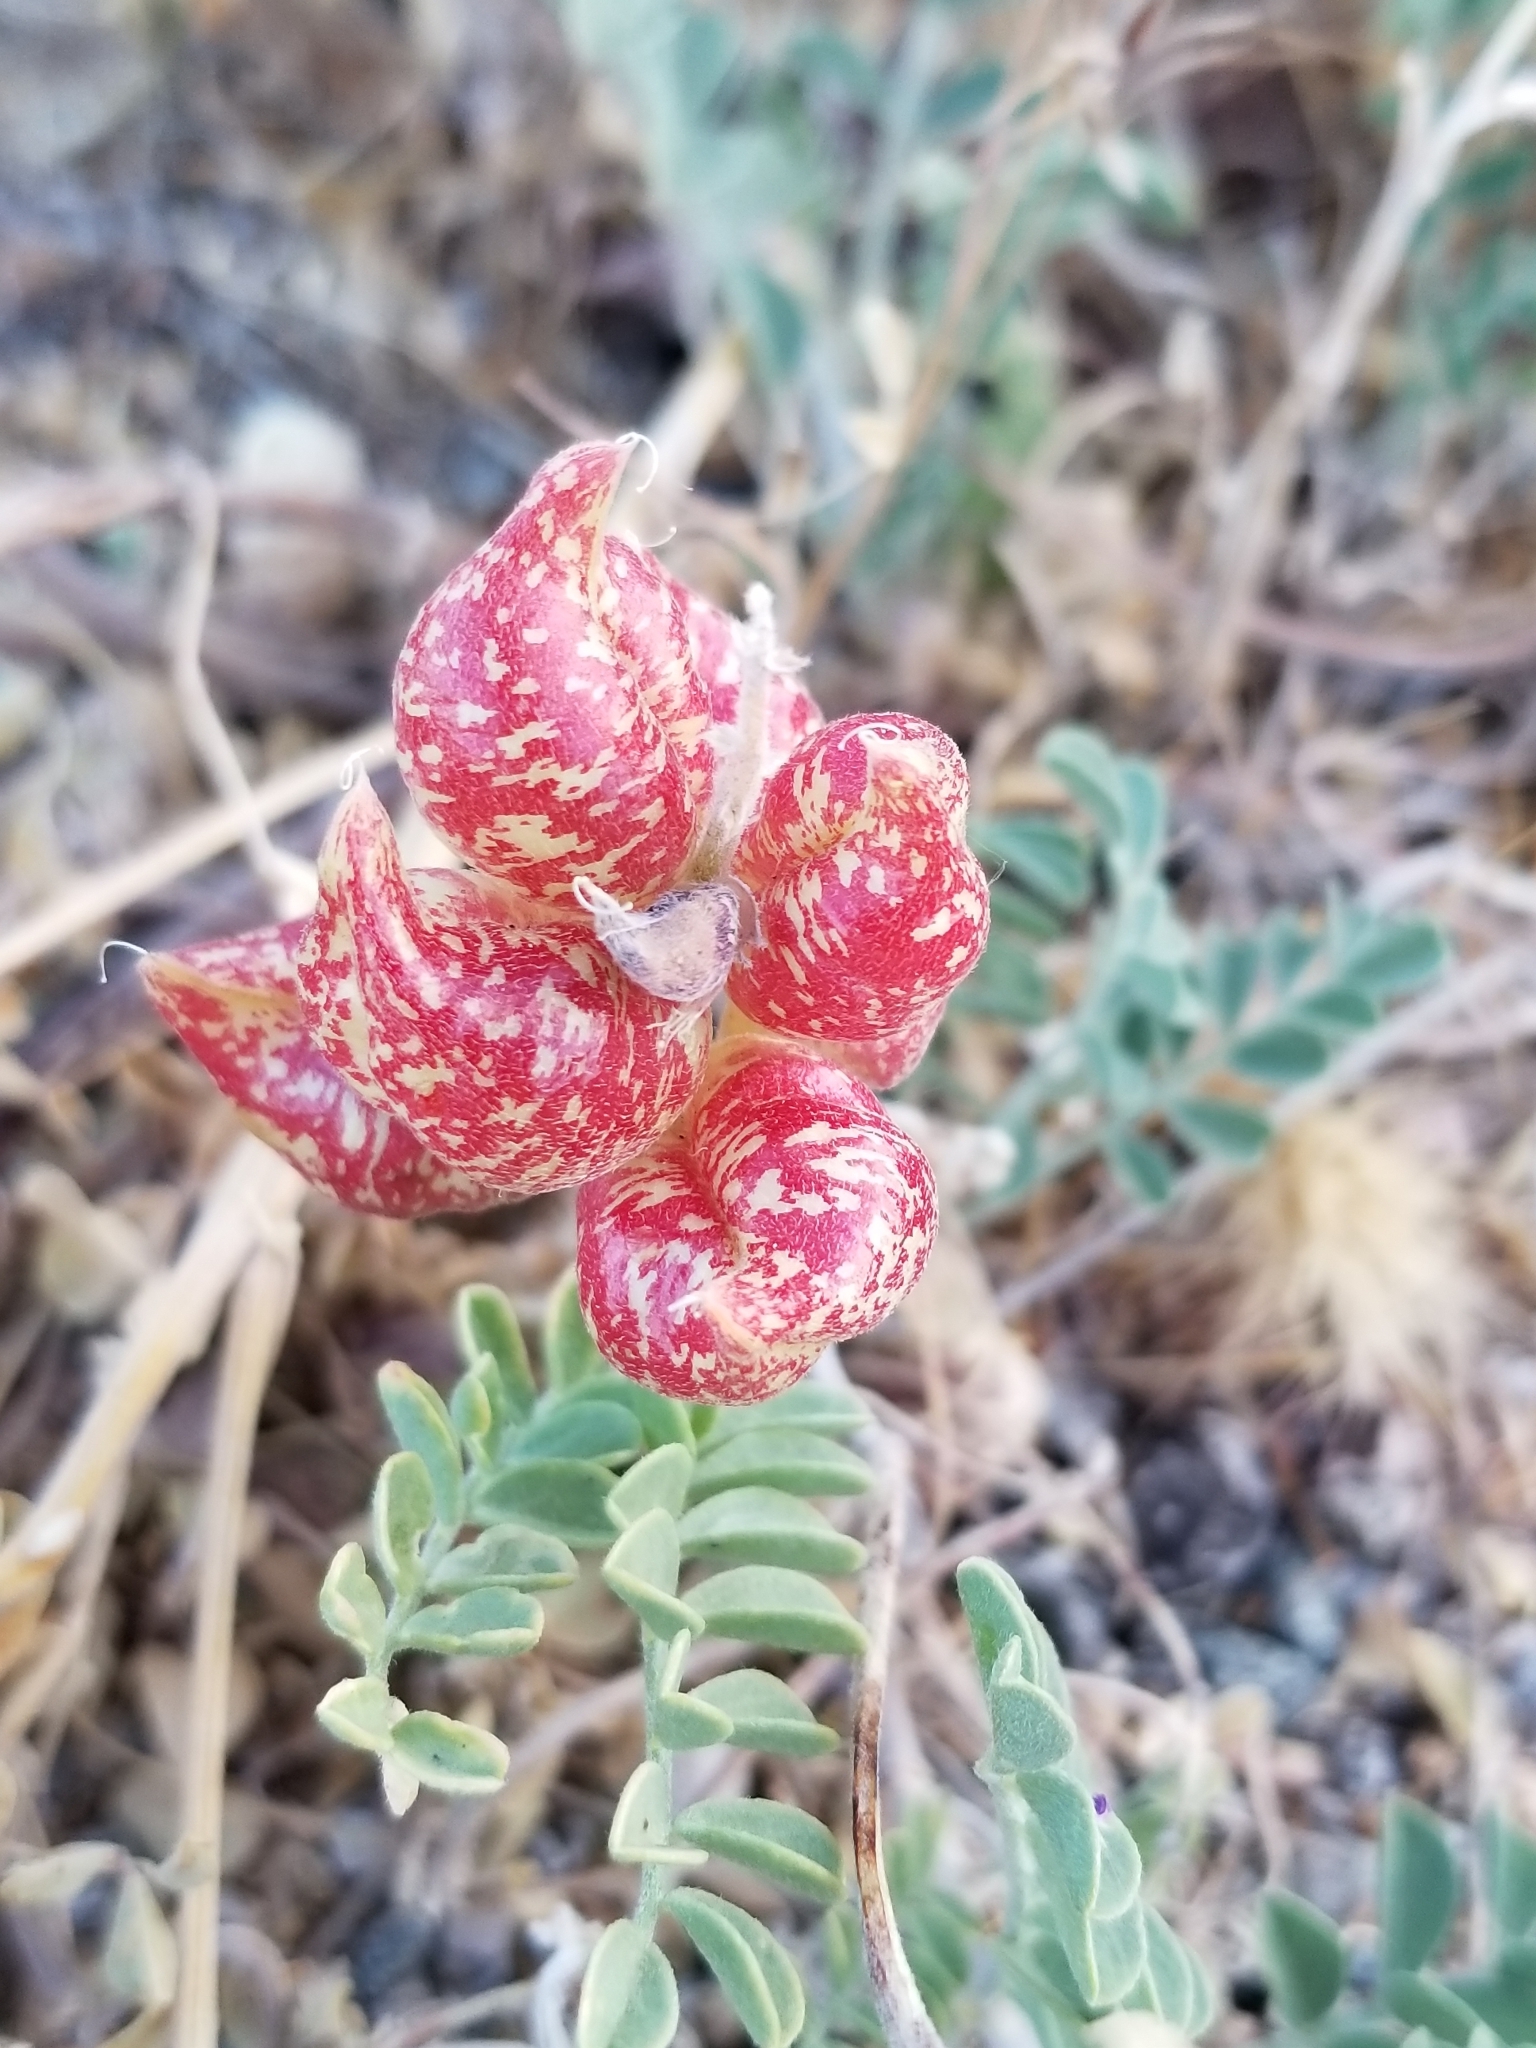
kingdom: Plantae
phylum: Tracheophyta
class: Magnoliopsida
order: Fabales
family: Fabaceae
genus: Astragalus
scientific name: Astragalus lentiginosus
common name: Freckled milkvetch
